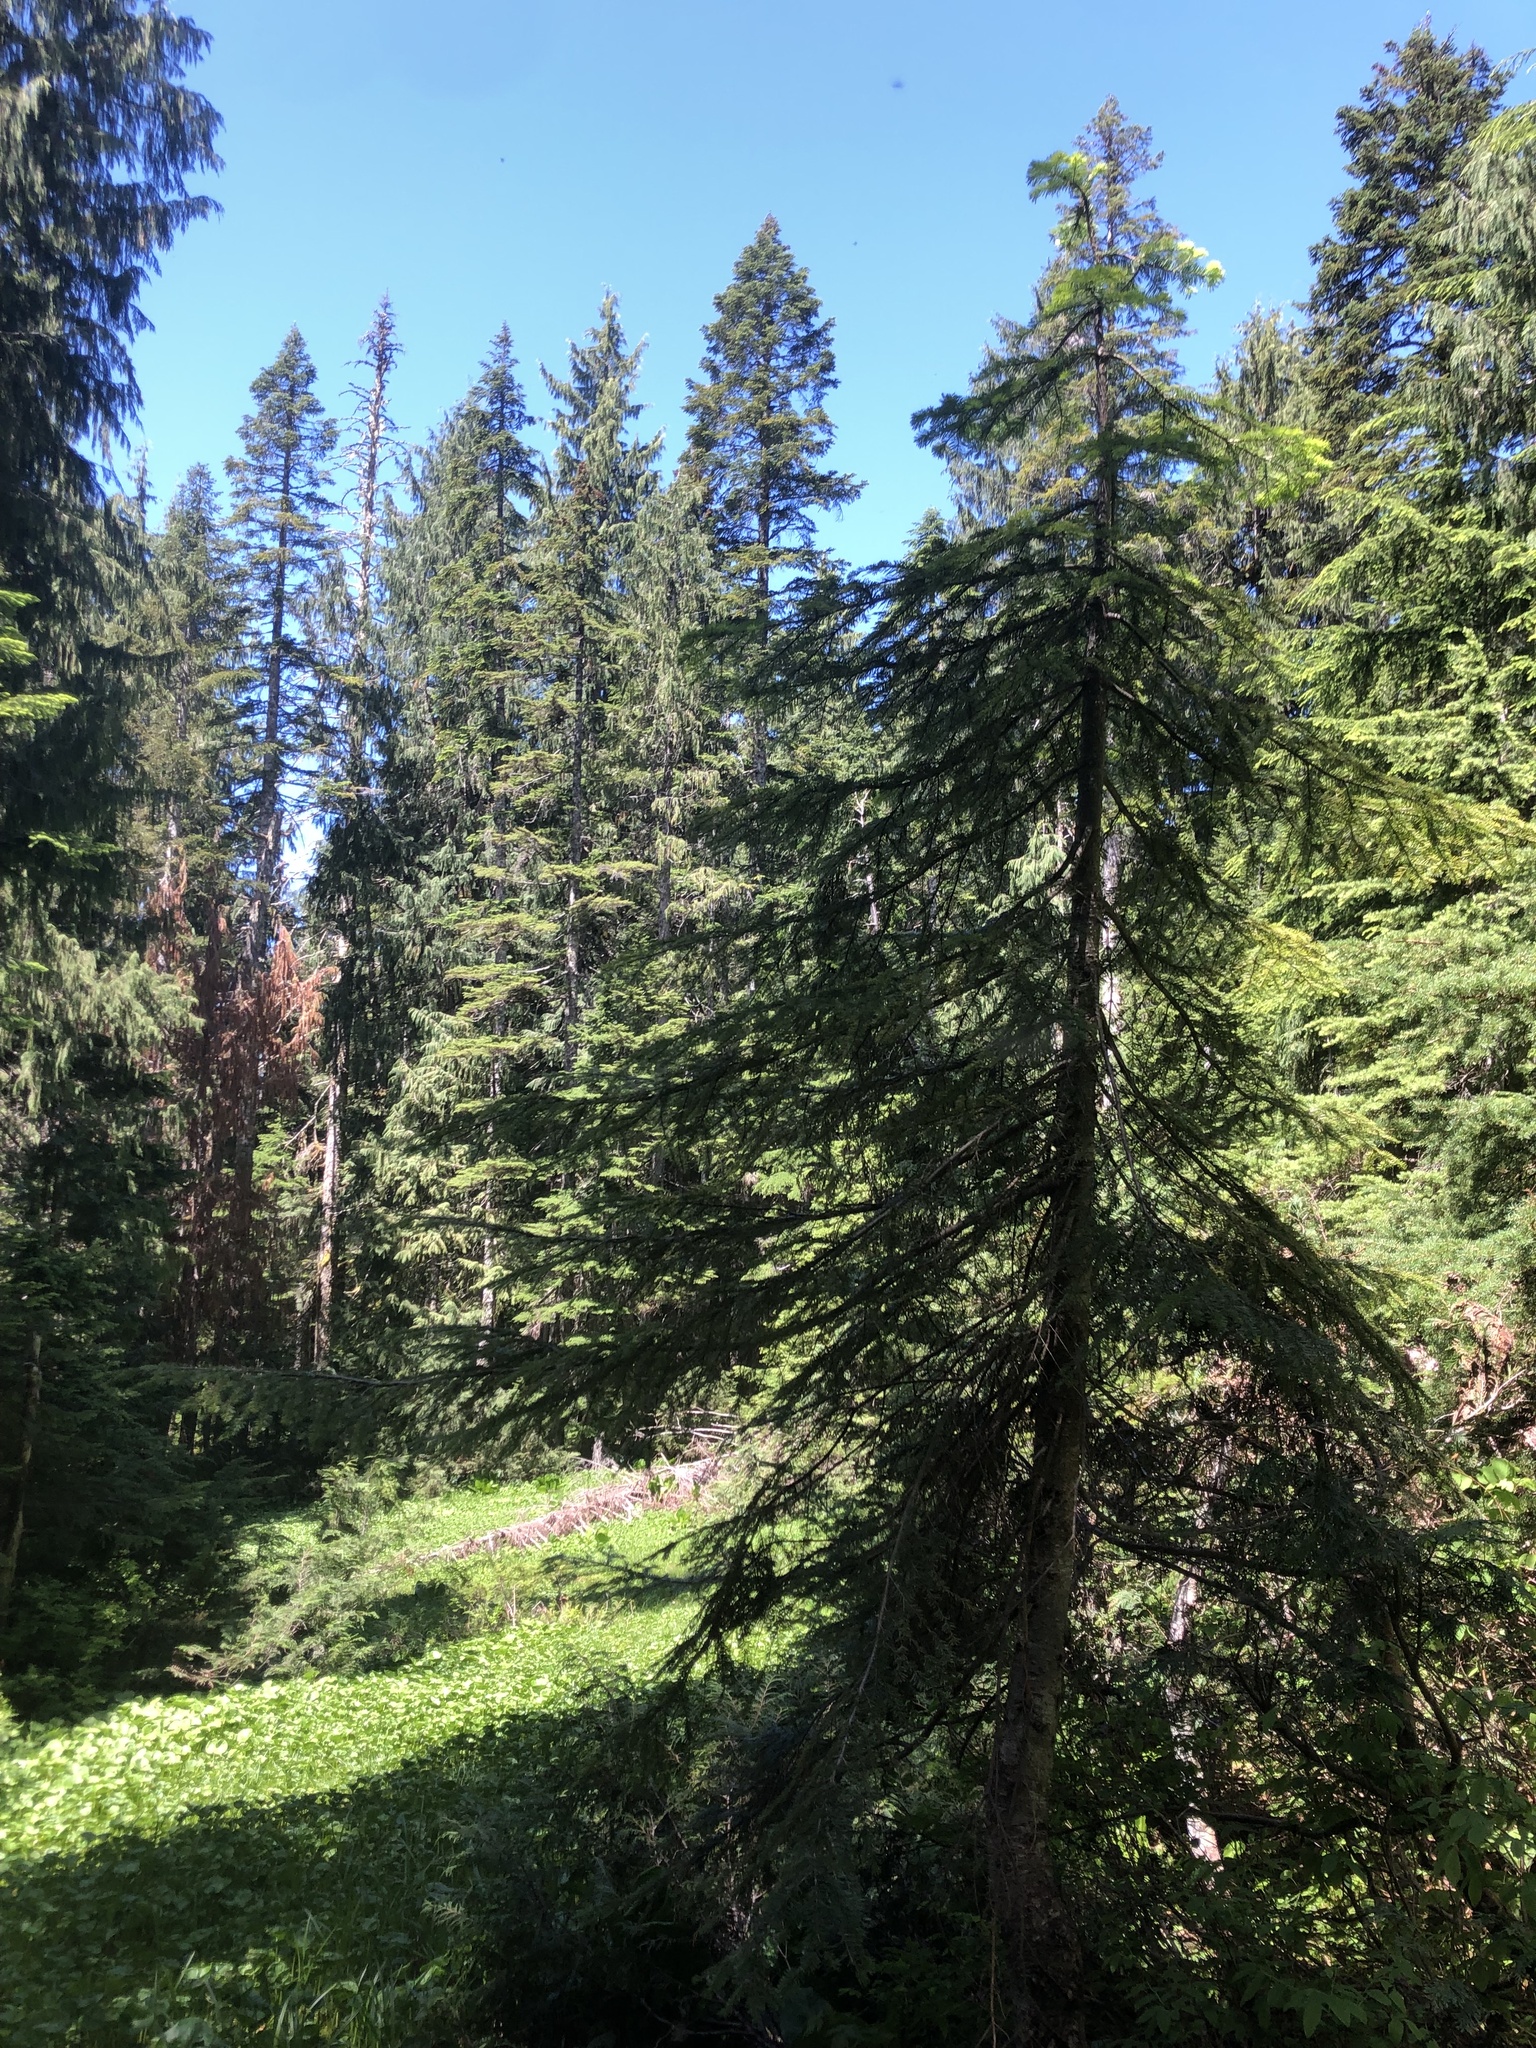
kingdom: Plantae
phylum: Tracheophyta
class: Pinopsida
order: Pinales
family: Pinaceae
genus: Abies
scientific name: Abies amabilis
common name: Pacific silver fir
